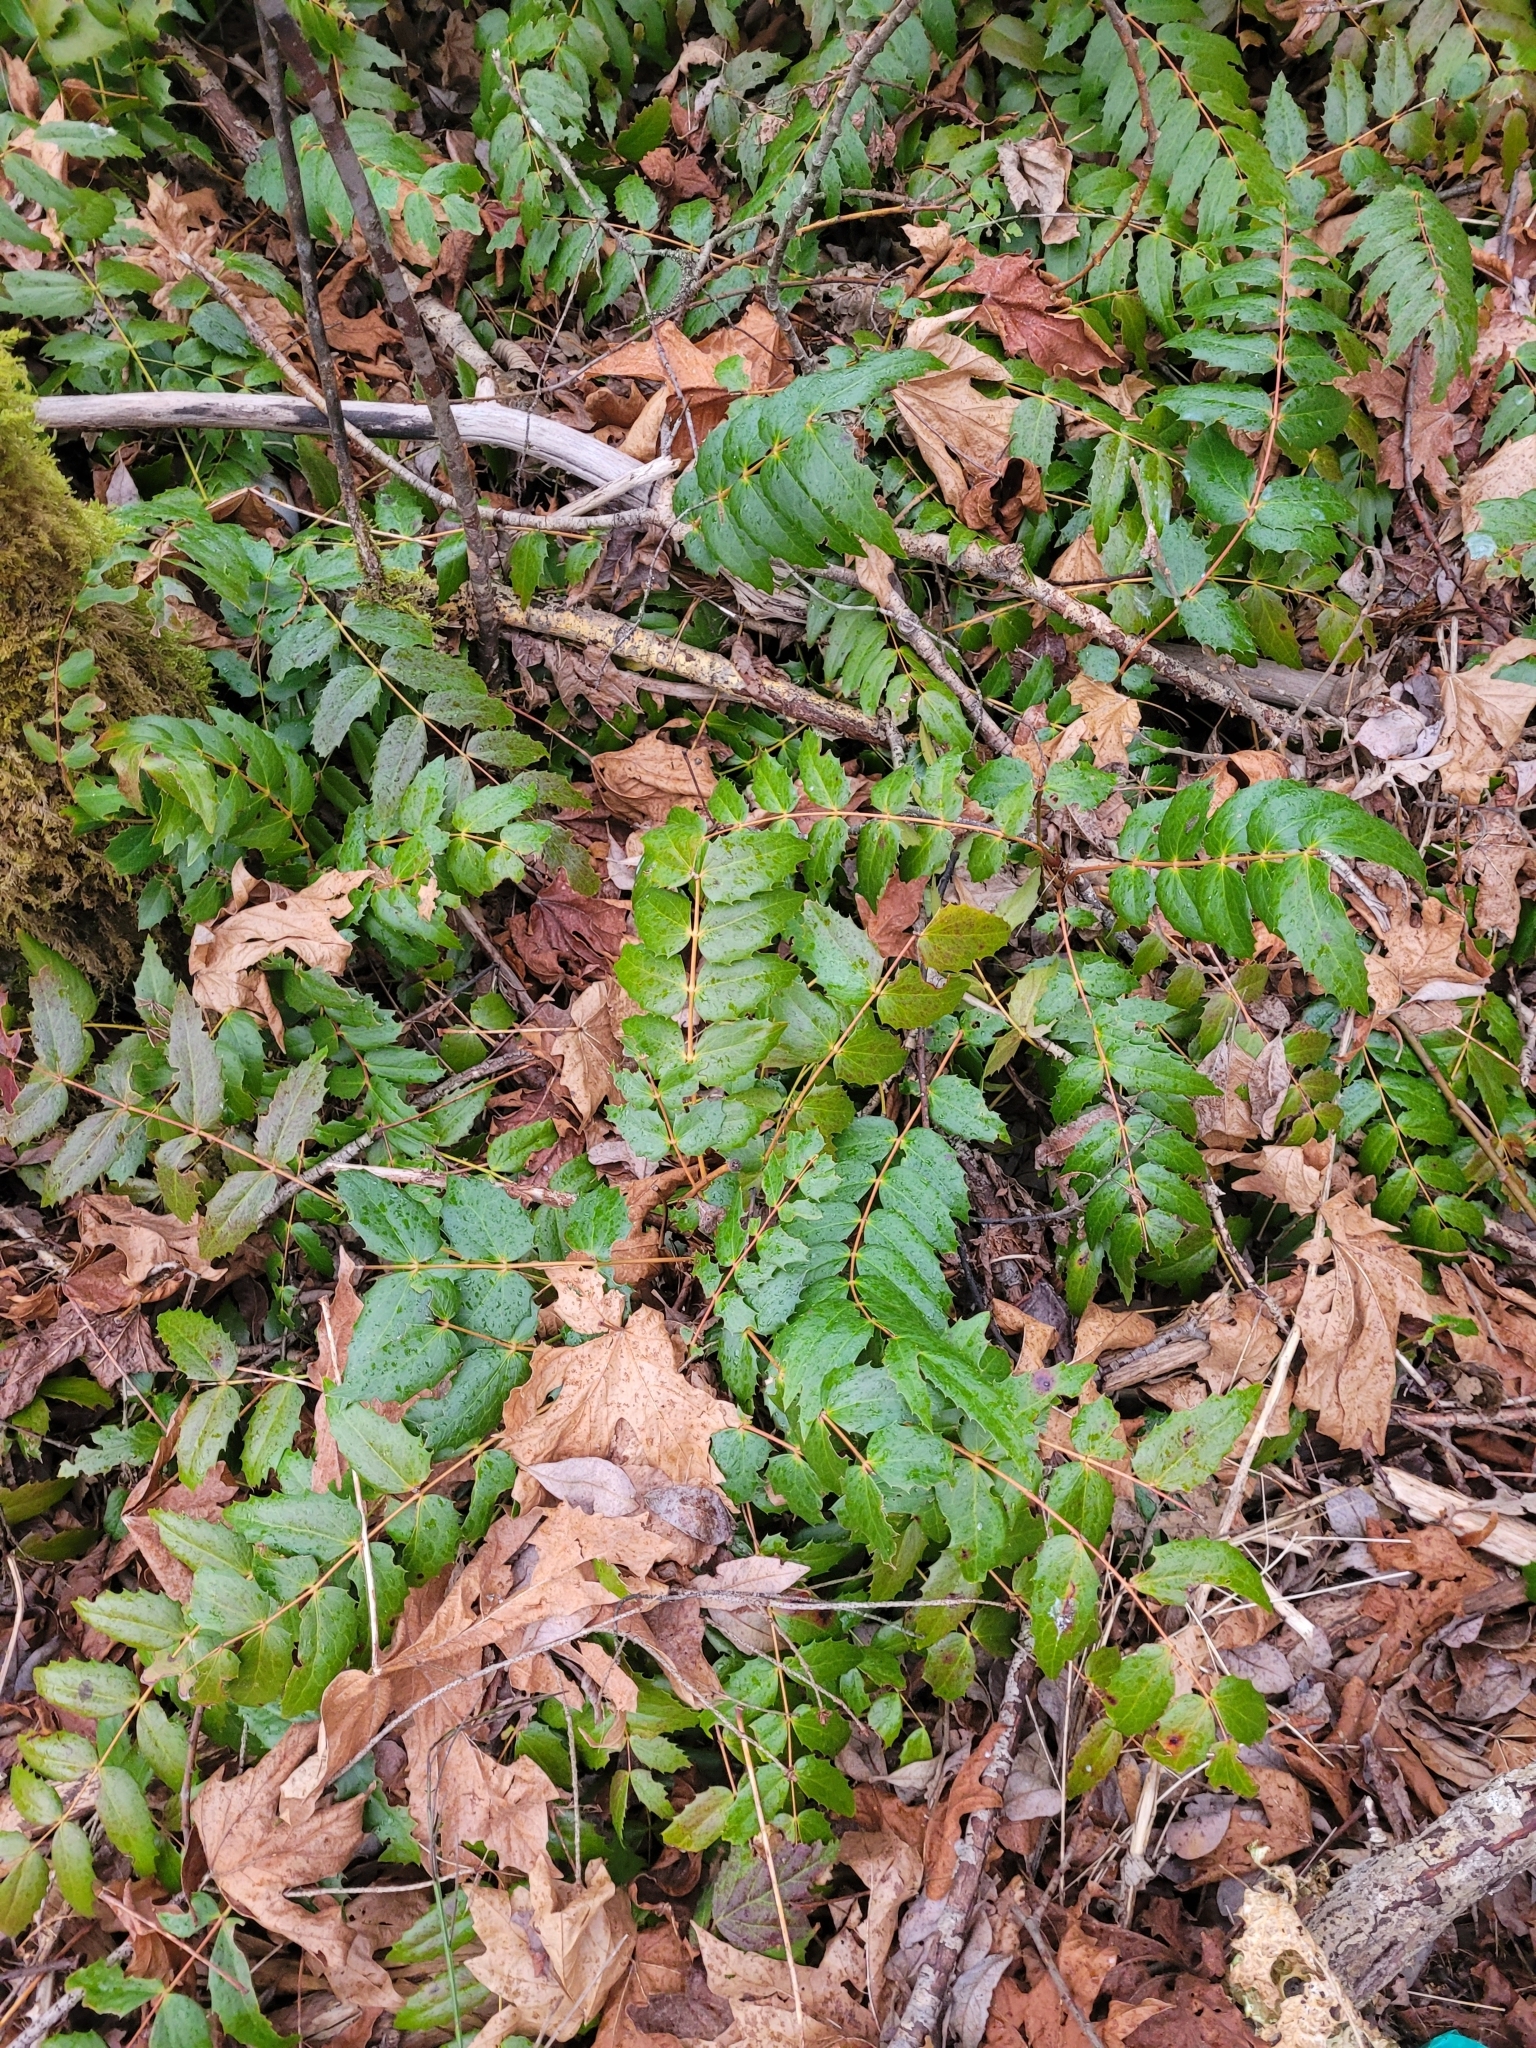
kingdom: Plantae
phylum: Tracheophyta
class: Magnoliopsida
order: Ranunculales
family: Berberidaceae
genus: Mahonia
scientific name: Mahonia nervosa
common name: Cascade oregon-grape
